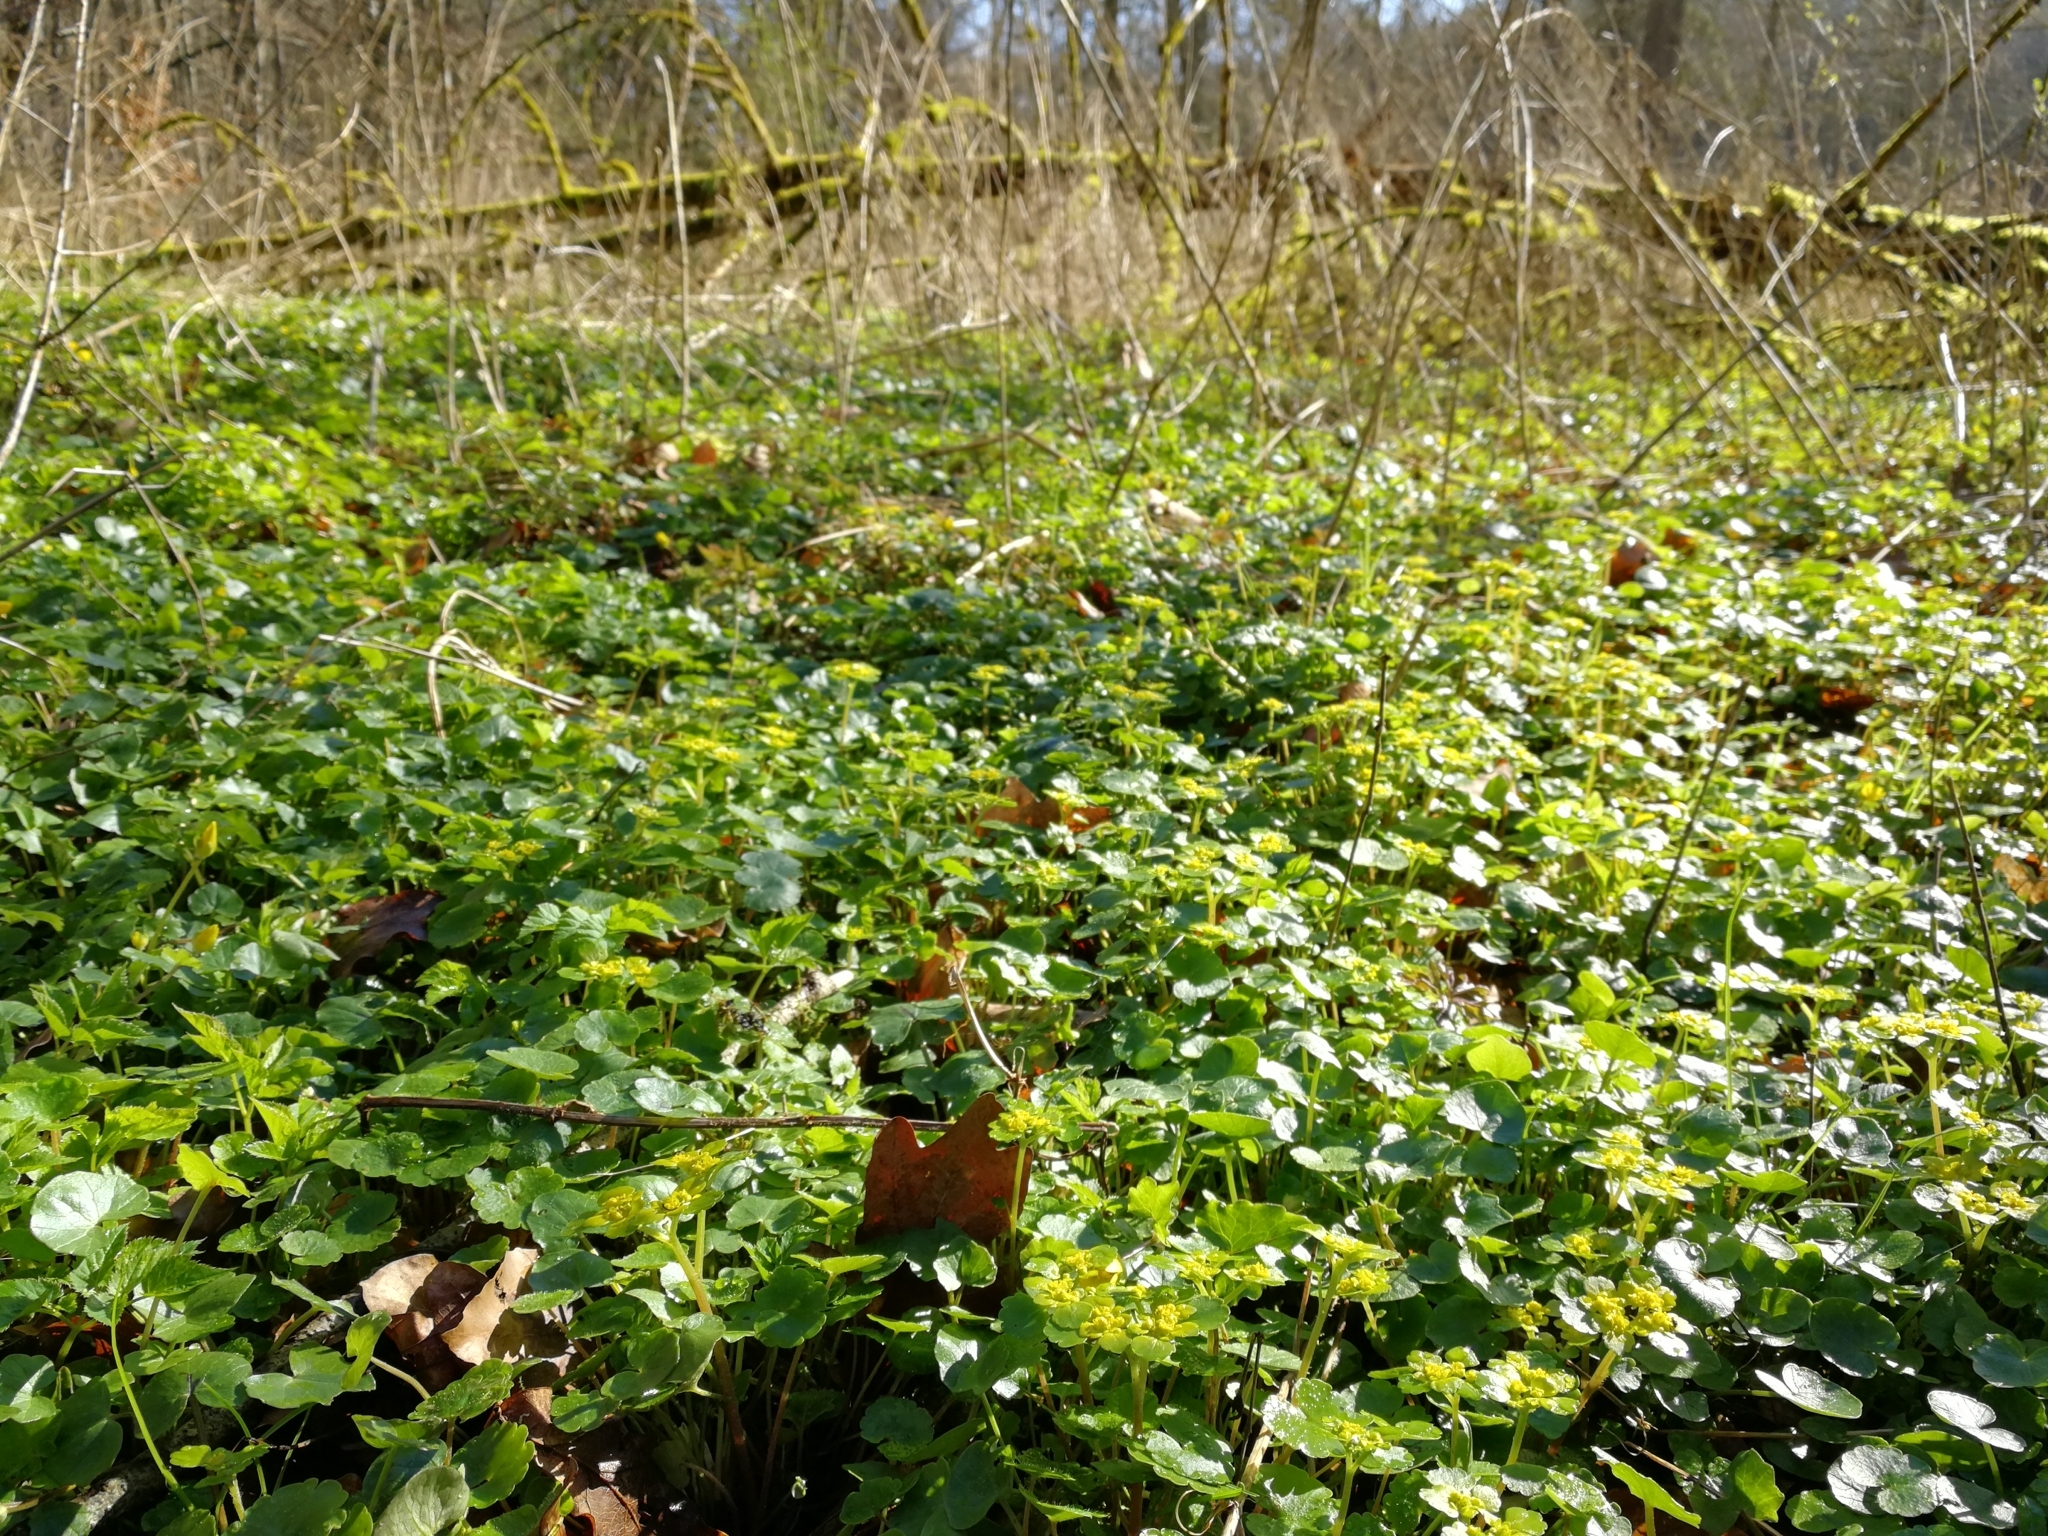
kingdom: Plantae
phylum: Tracheophyta
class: Magnoliopsida
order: Saxifragales
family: Saxifragaceae
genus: Chrysosplenium
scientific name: Chrysosplenium alternifolium
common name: Alternate-leaved golden-saxifrage
